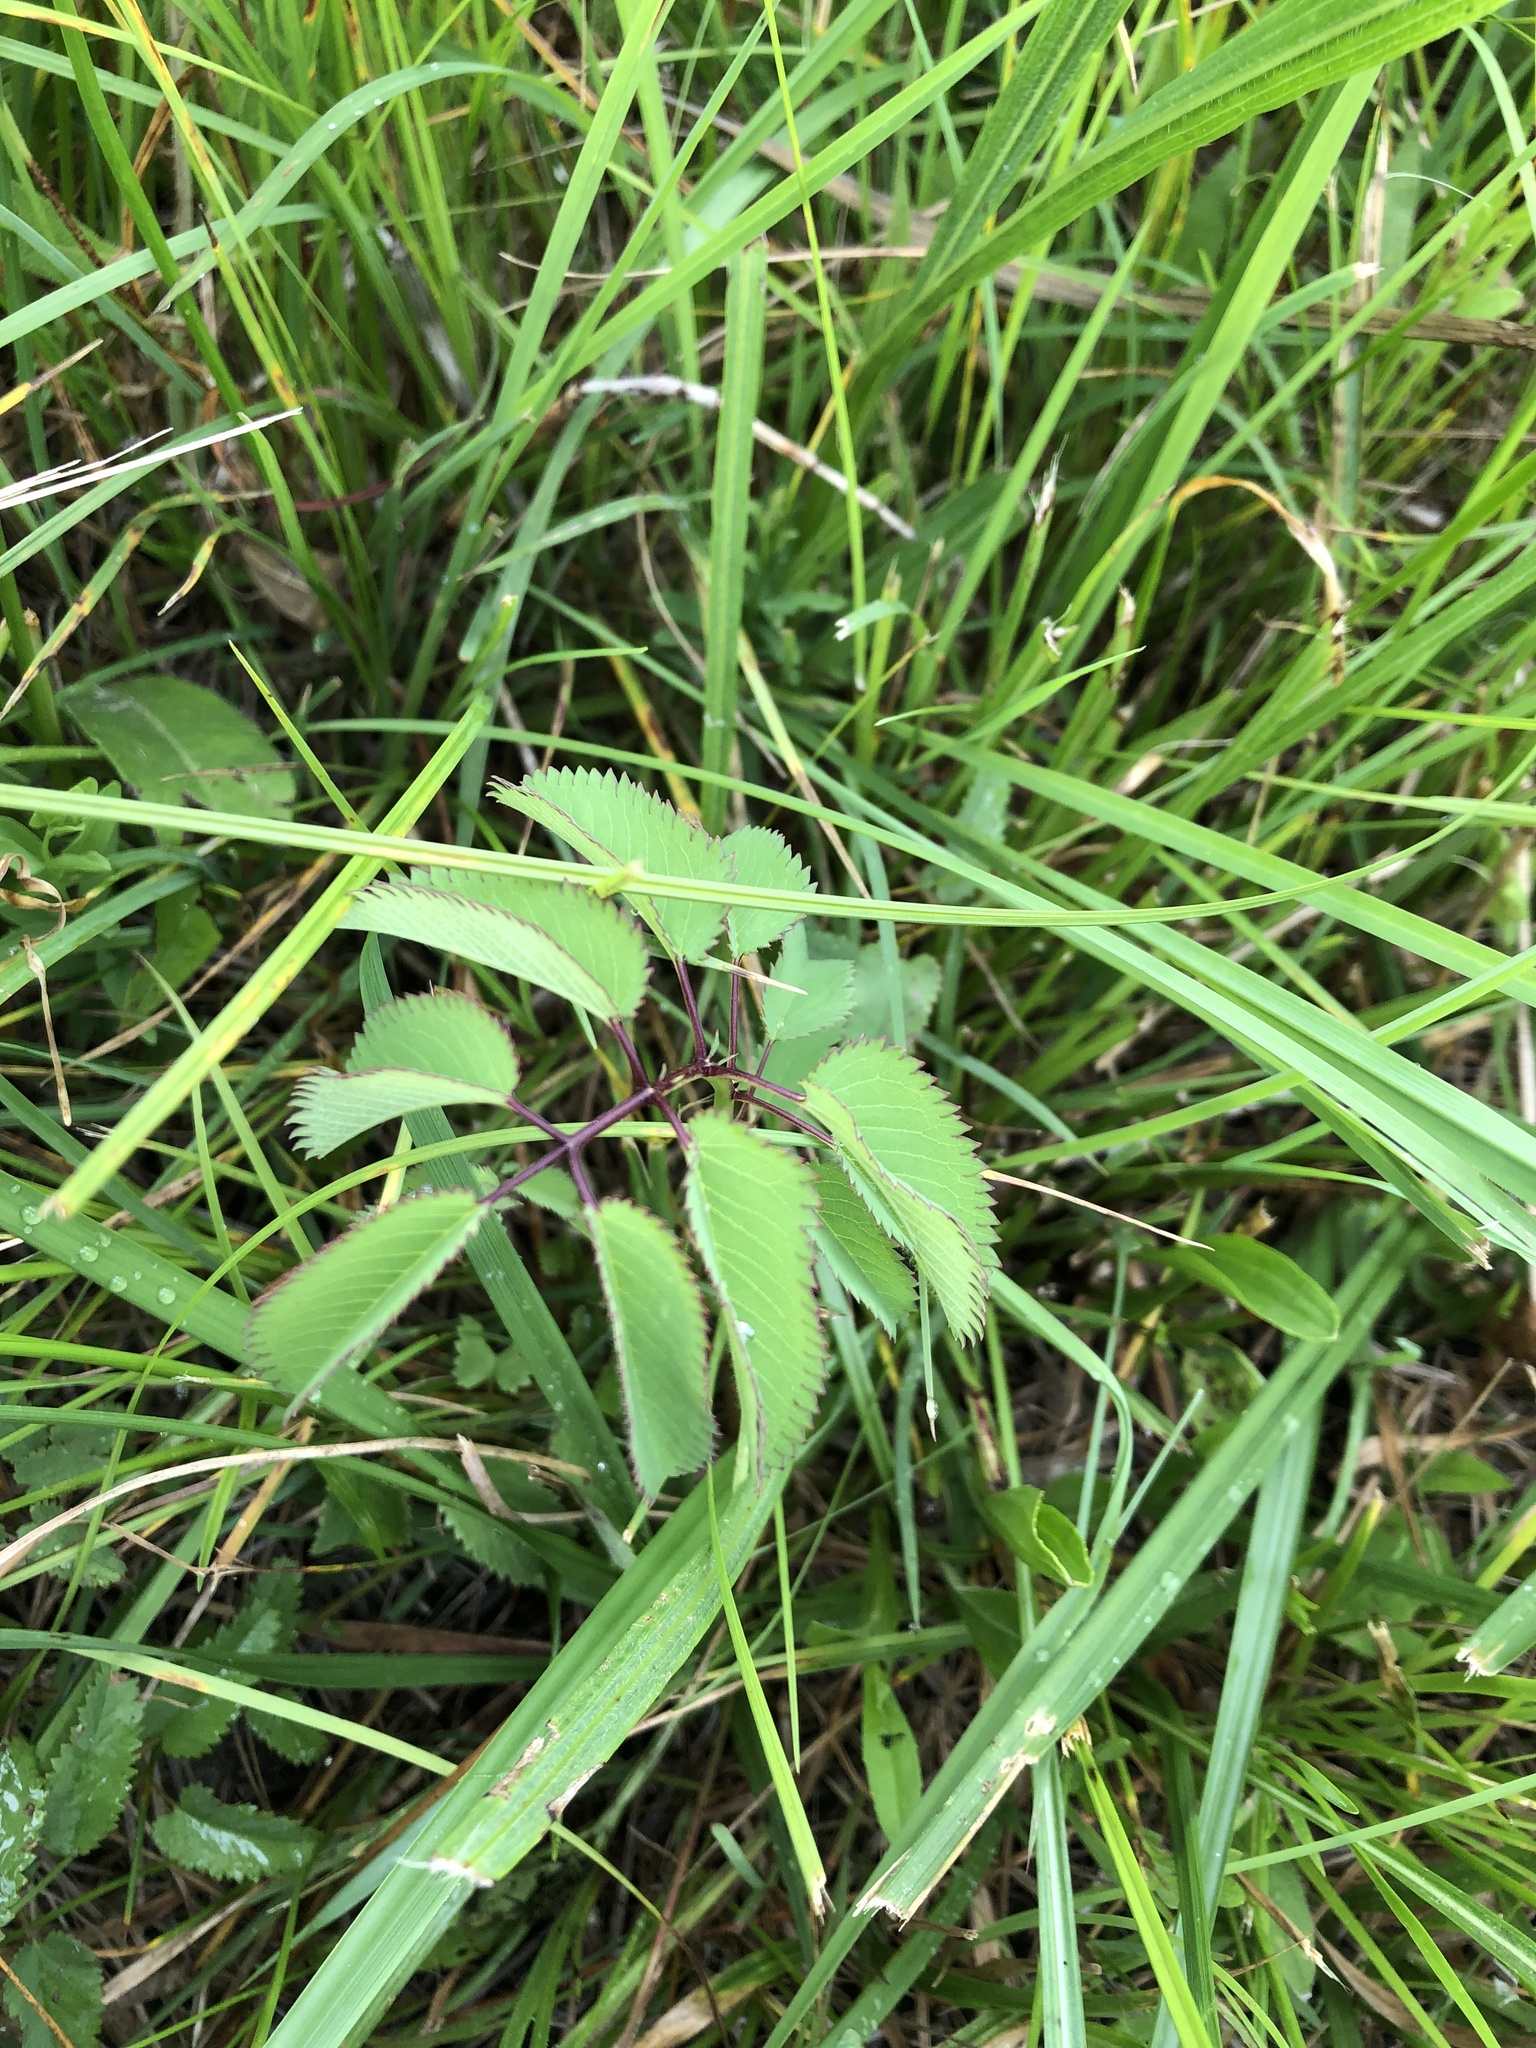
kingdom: Plantae
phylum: Tracheophyta
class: Magnoliopsida
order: Rosales
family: Rosaceae
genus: Sanguisorba
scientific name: Sanguisorba canadensis
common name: White burnet
